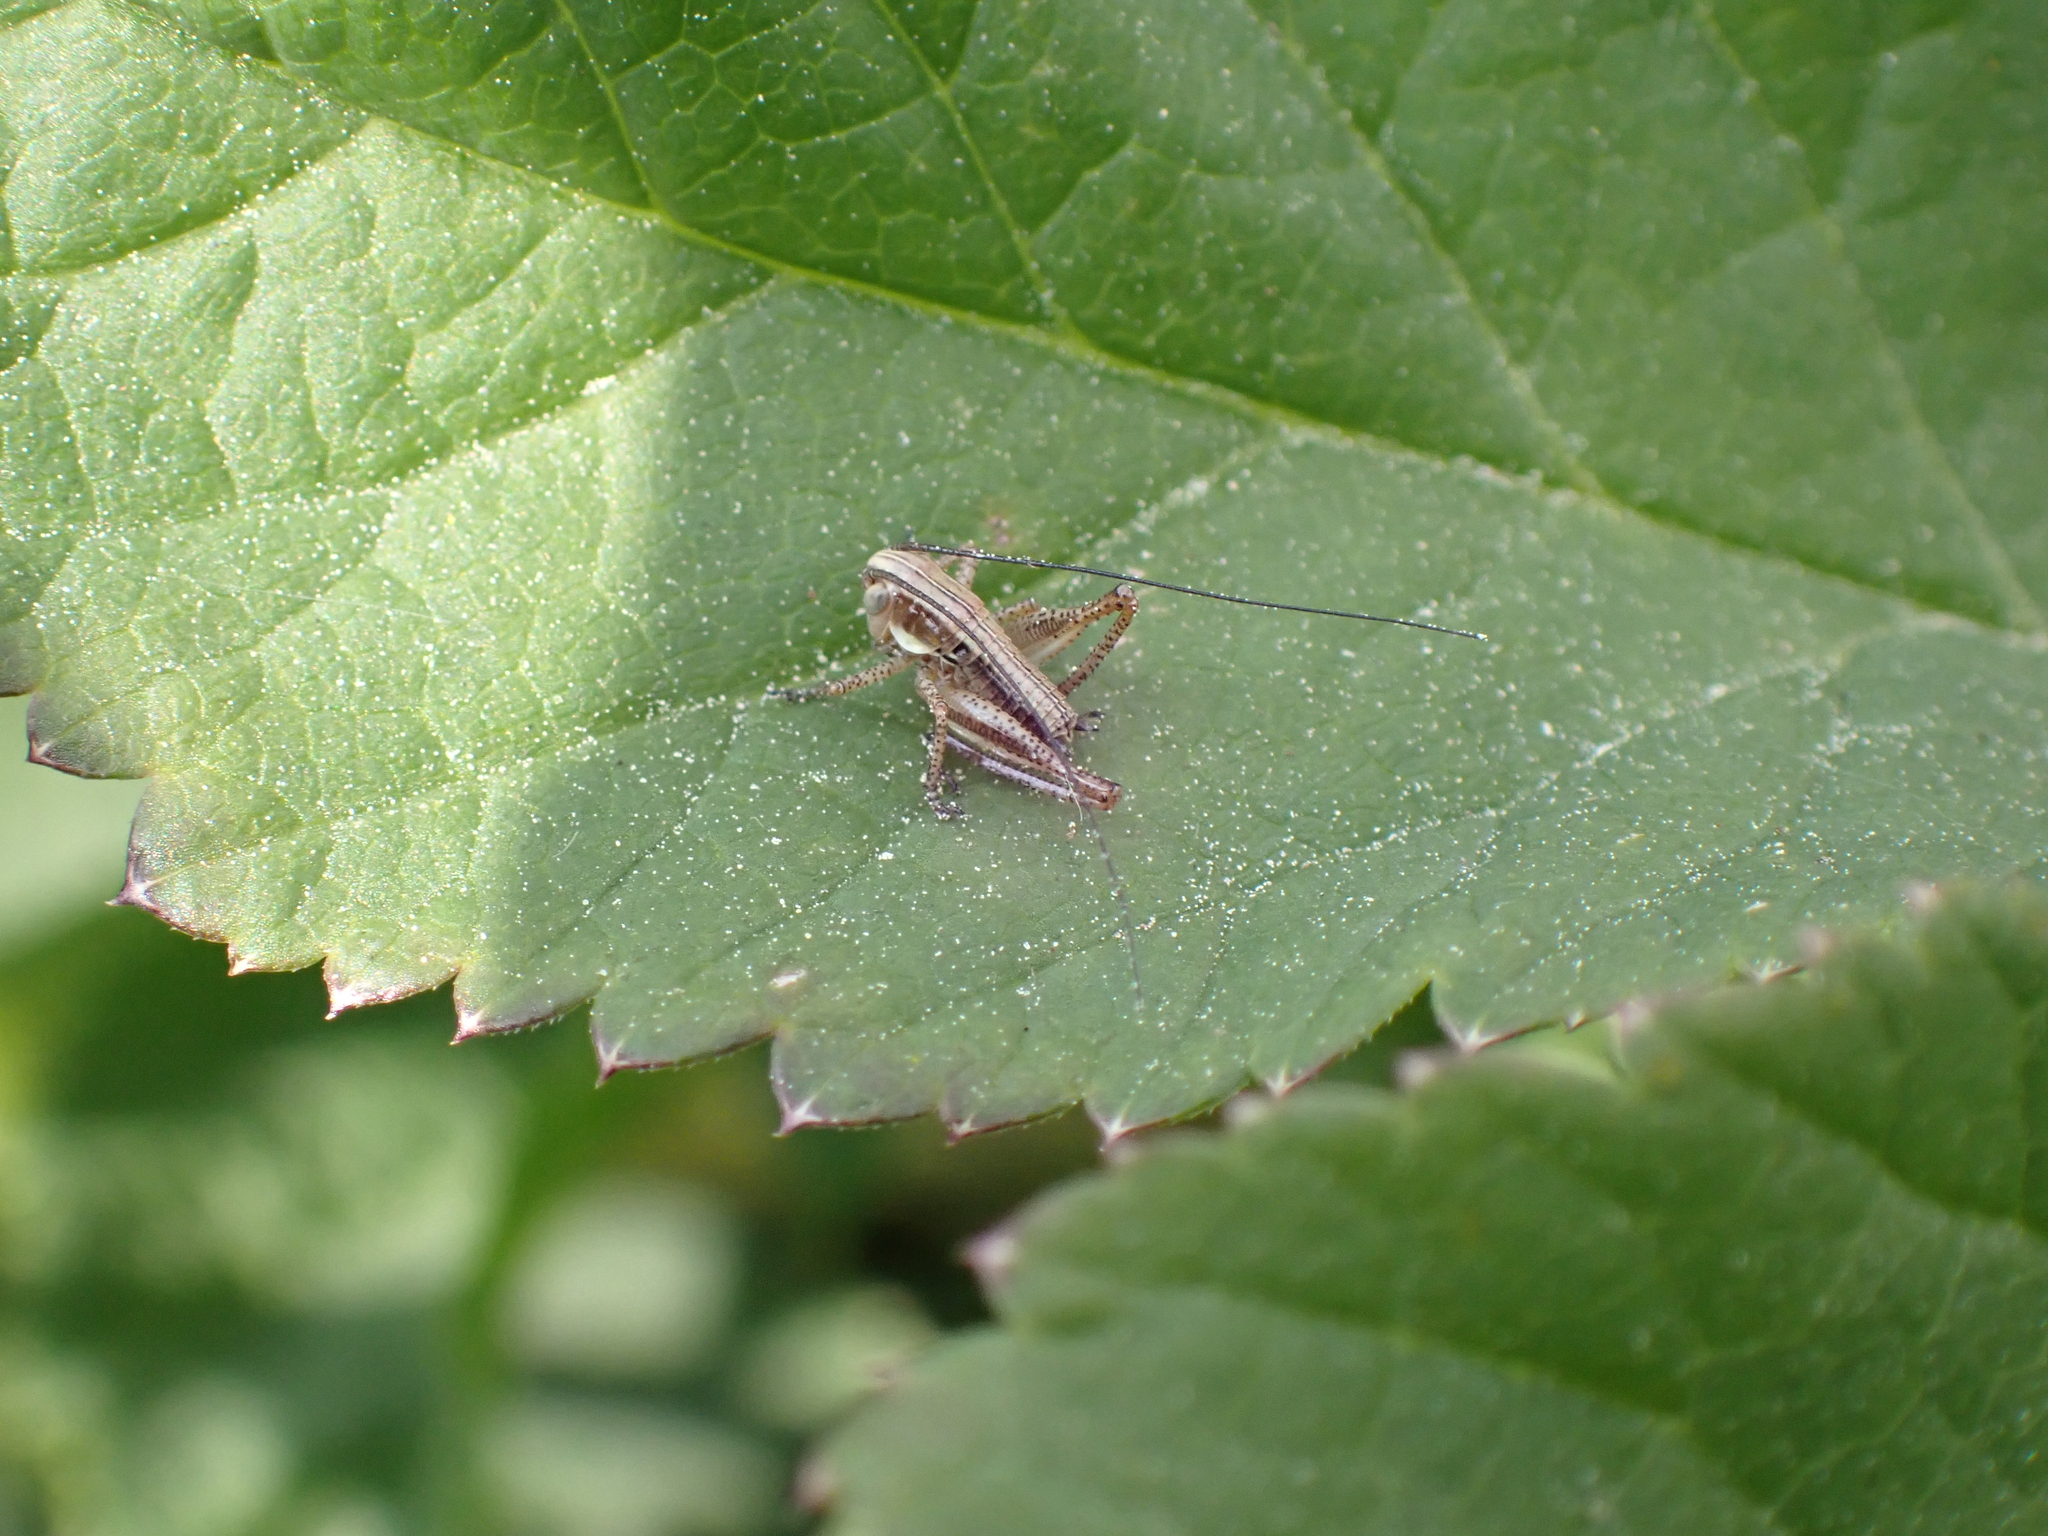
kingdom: Animalia
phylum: Arthropoda
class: Insecta
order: Orthoptera
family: Tettigoniidae
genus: Roeseliana
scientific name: Roeseliana roeselii
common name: Roesel's bush cricket
